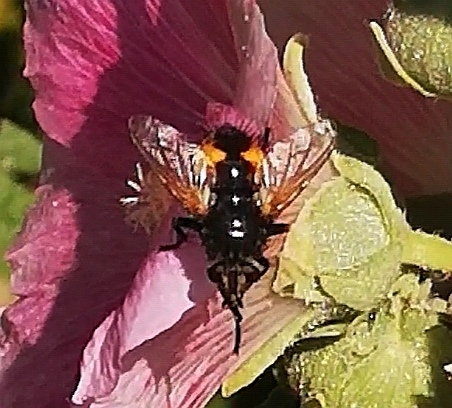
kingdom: Animalia
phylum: Arthropoda
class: Insecta
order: Diptera
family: Tachinidae
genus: Nowickia
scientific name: Nowickia ferox
